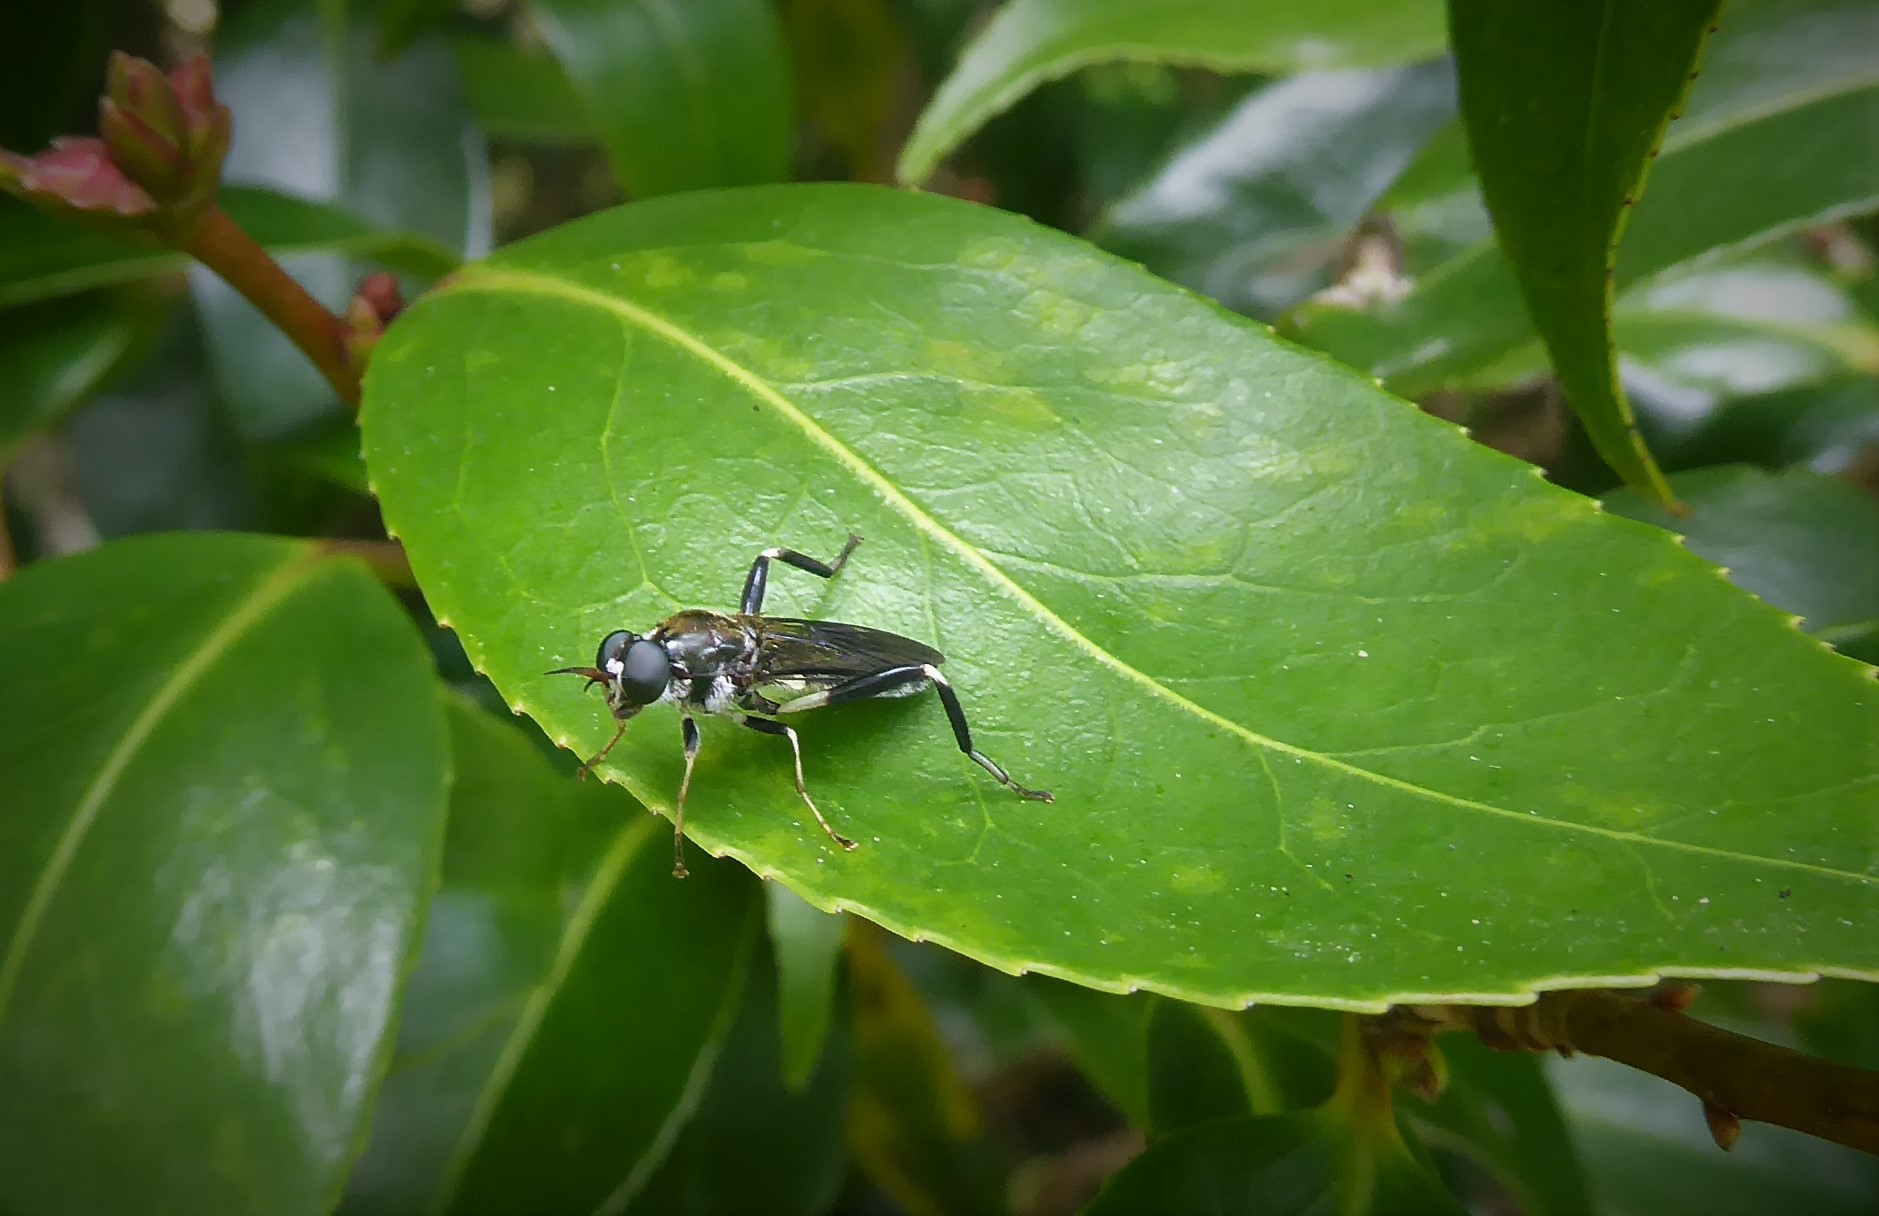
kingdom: Animalia
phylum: Arthropoda
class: Insecta
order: Diptera
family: Stratiomyidae
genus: Exaireta
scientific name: Exaireta spinigera
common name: Blue soldier fly
